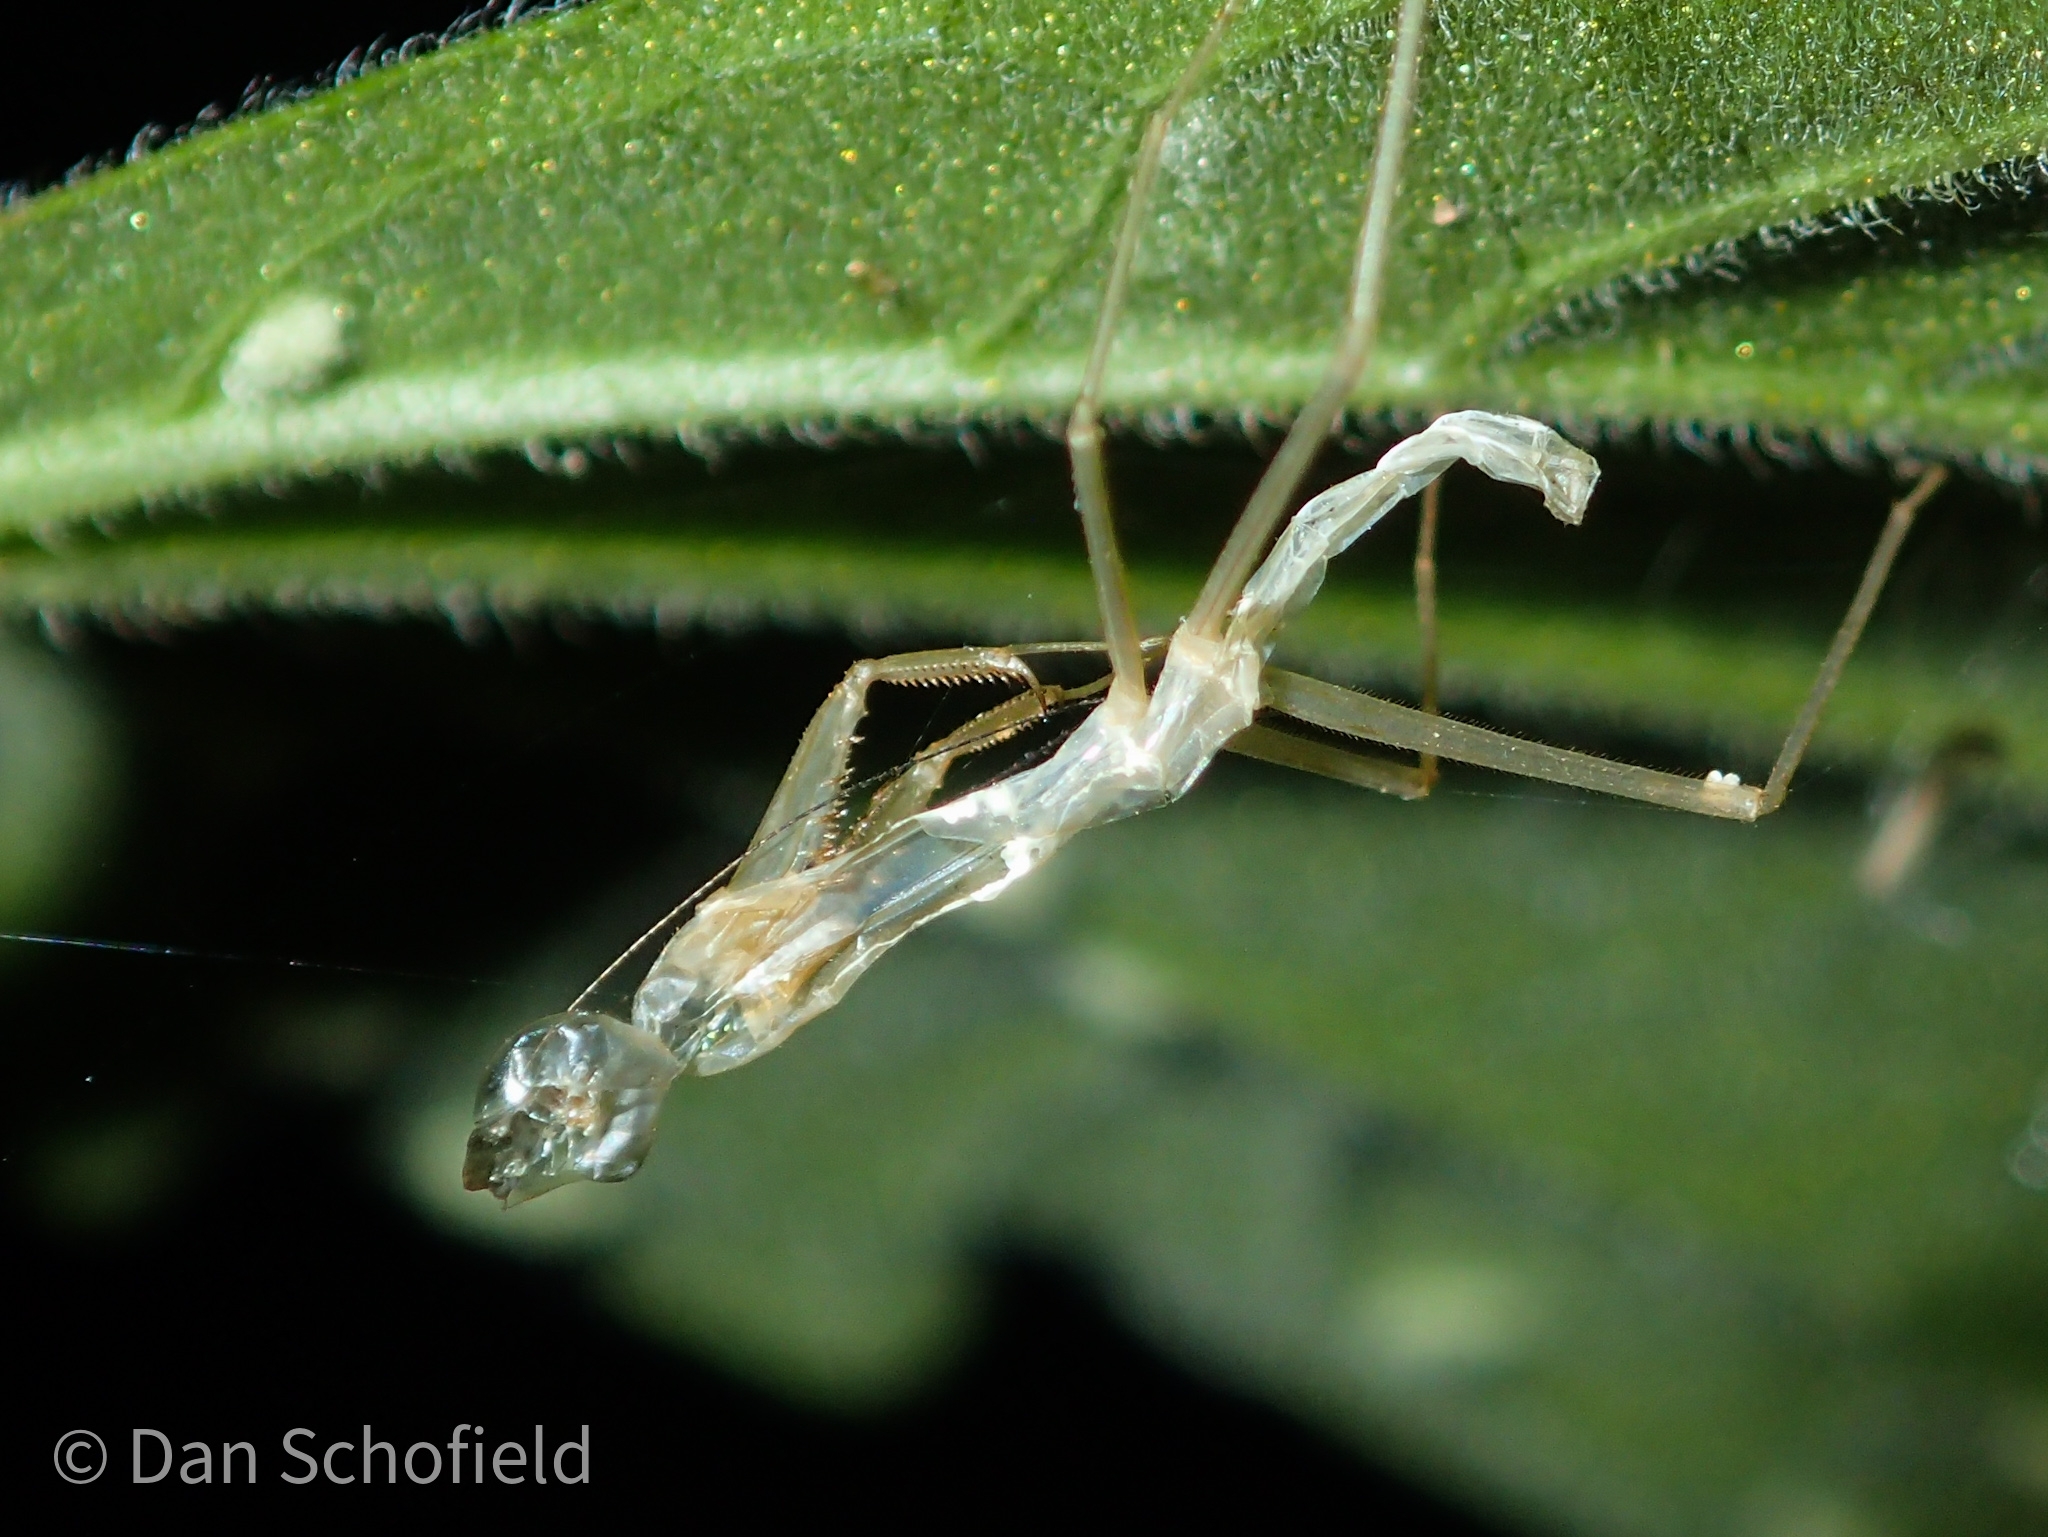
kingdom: Animalia
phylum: Arthropoda
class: Insecta
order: Mantodea
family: Mantidae
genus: Hierodula
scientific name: Hierodula purpurescens
